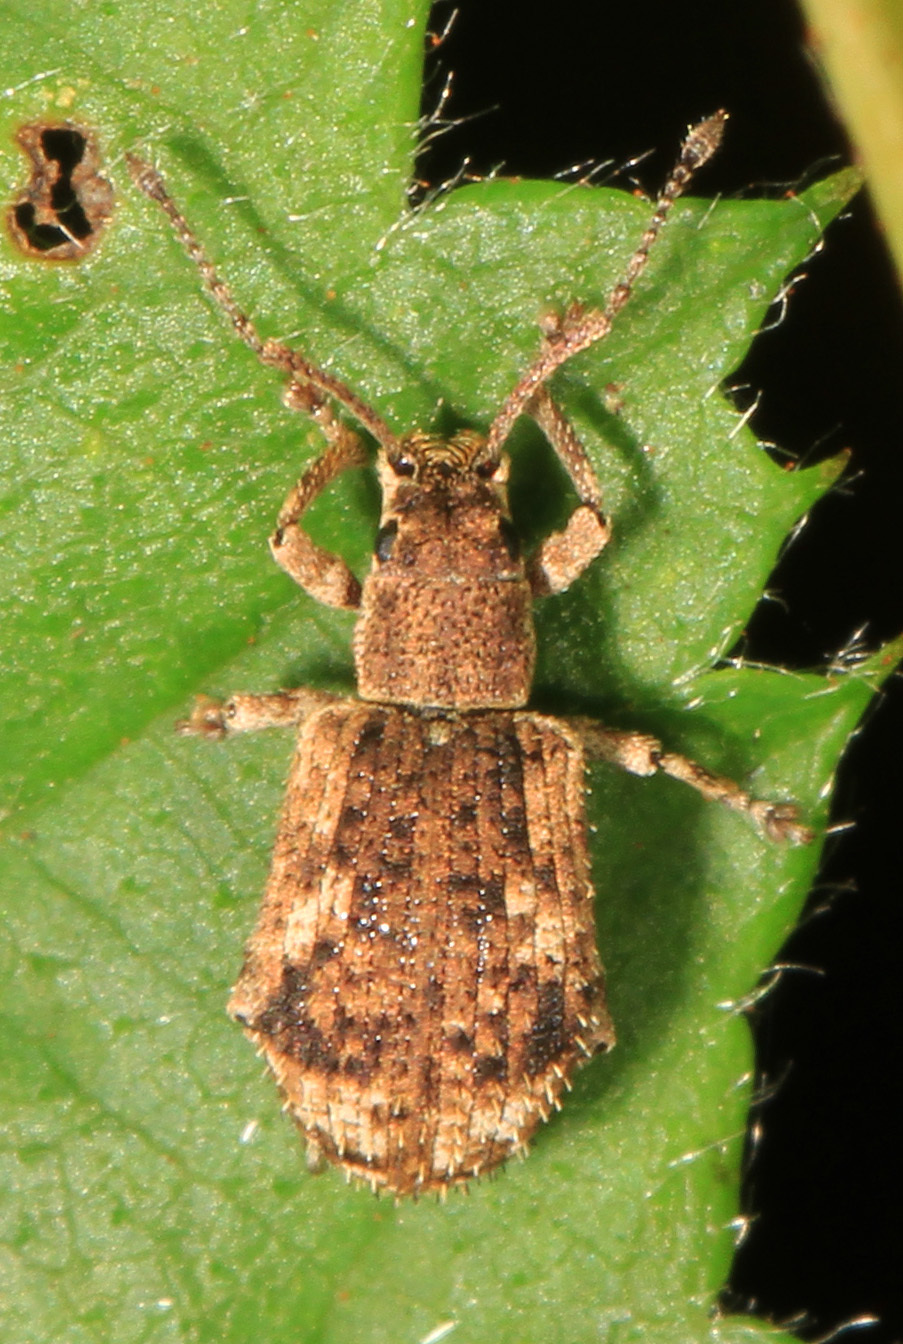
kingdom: Animalia
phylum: Arthropoda
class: Insecta
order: Coleoptera
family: Curculionidae
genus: Pseudoedophrys
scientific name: Pseudoedophrys hilleri
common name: Weevil
